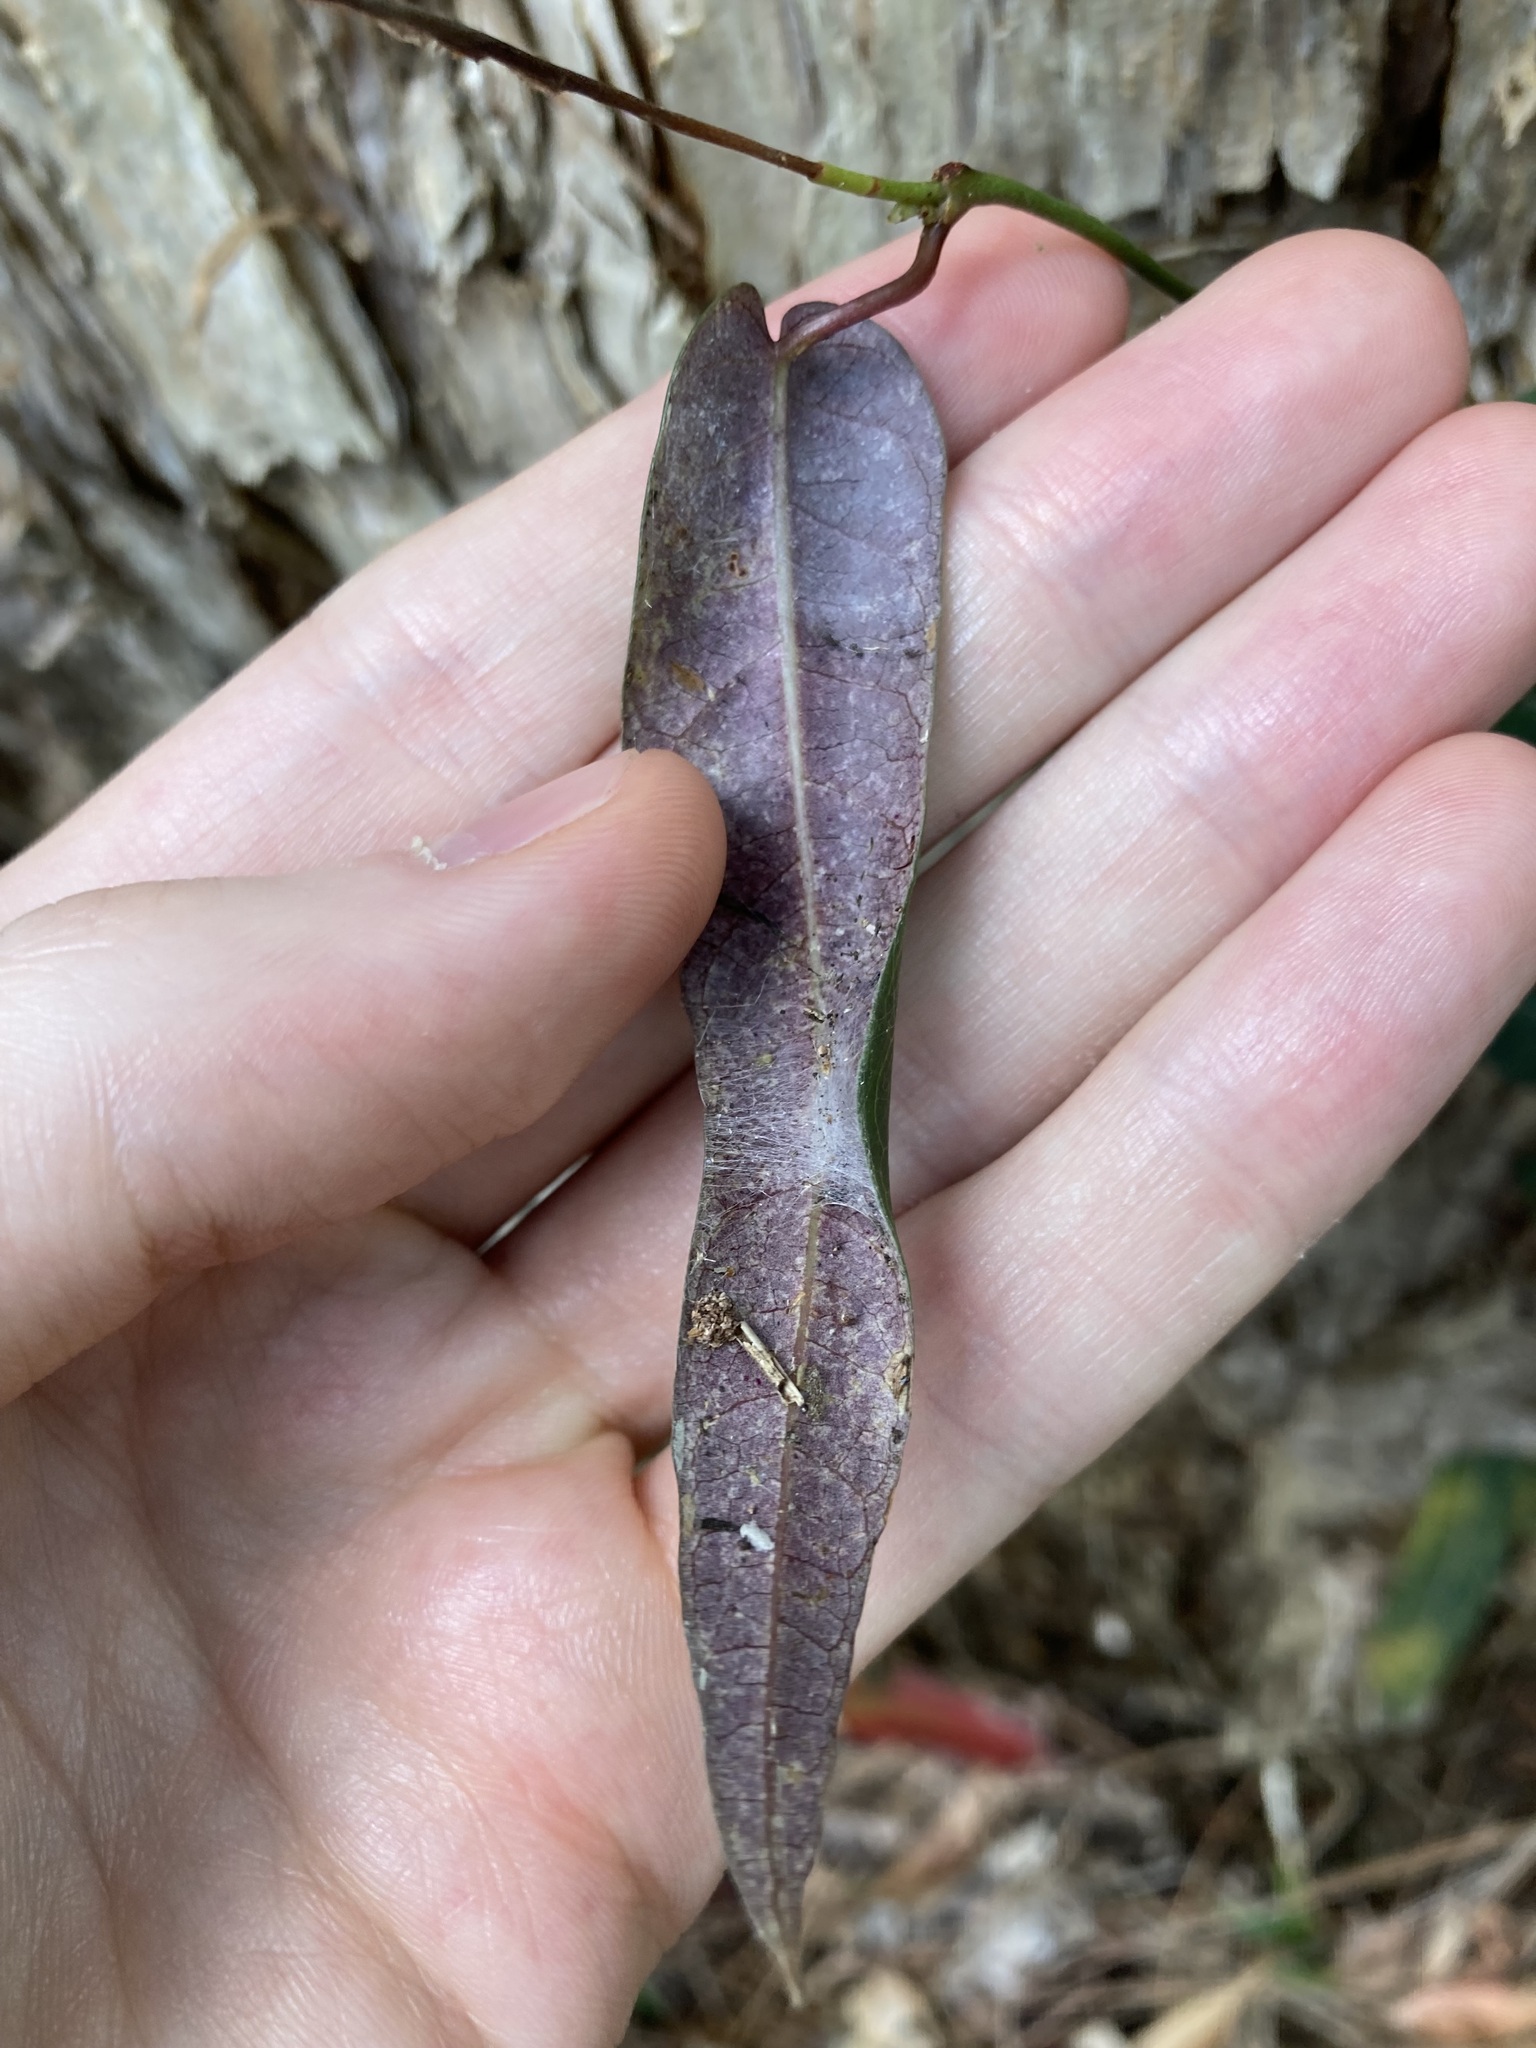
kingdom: Plantae
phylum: Tracheophyta
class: Magnoliopsida
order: Gentianales
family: Apocynaceae
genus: Parsonsia
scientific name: Parsonsia straminea
